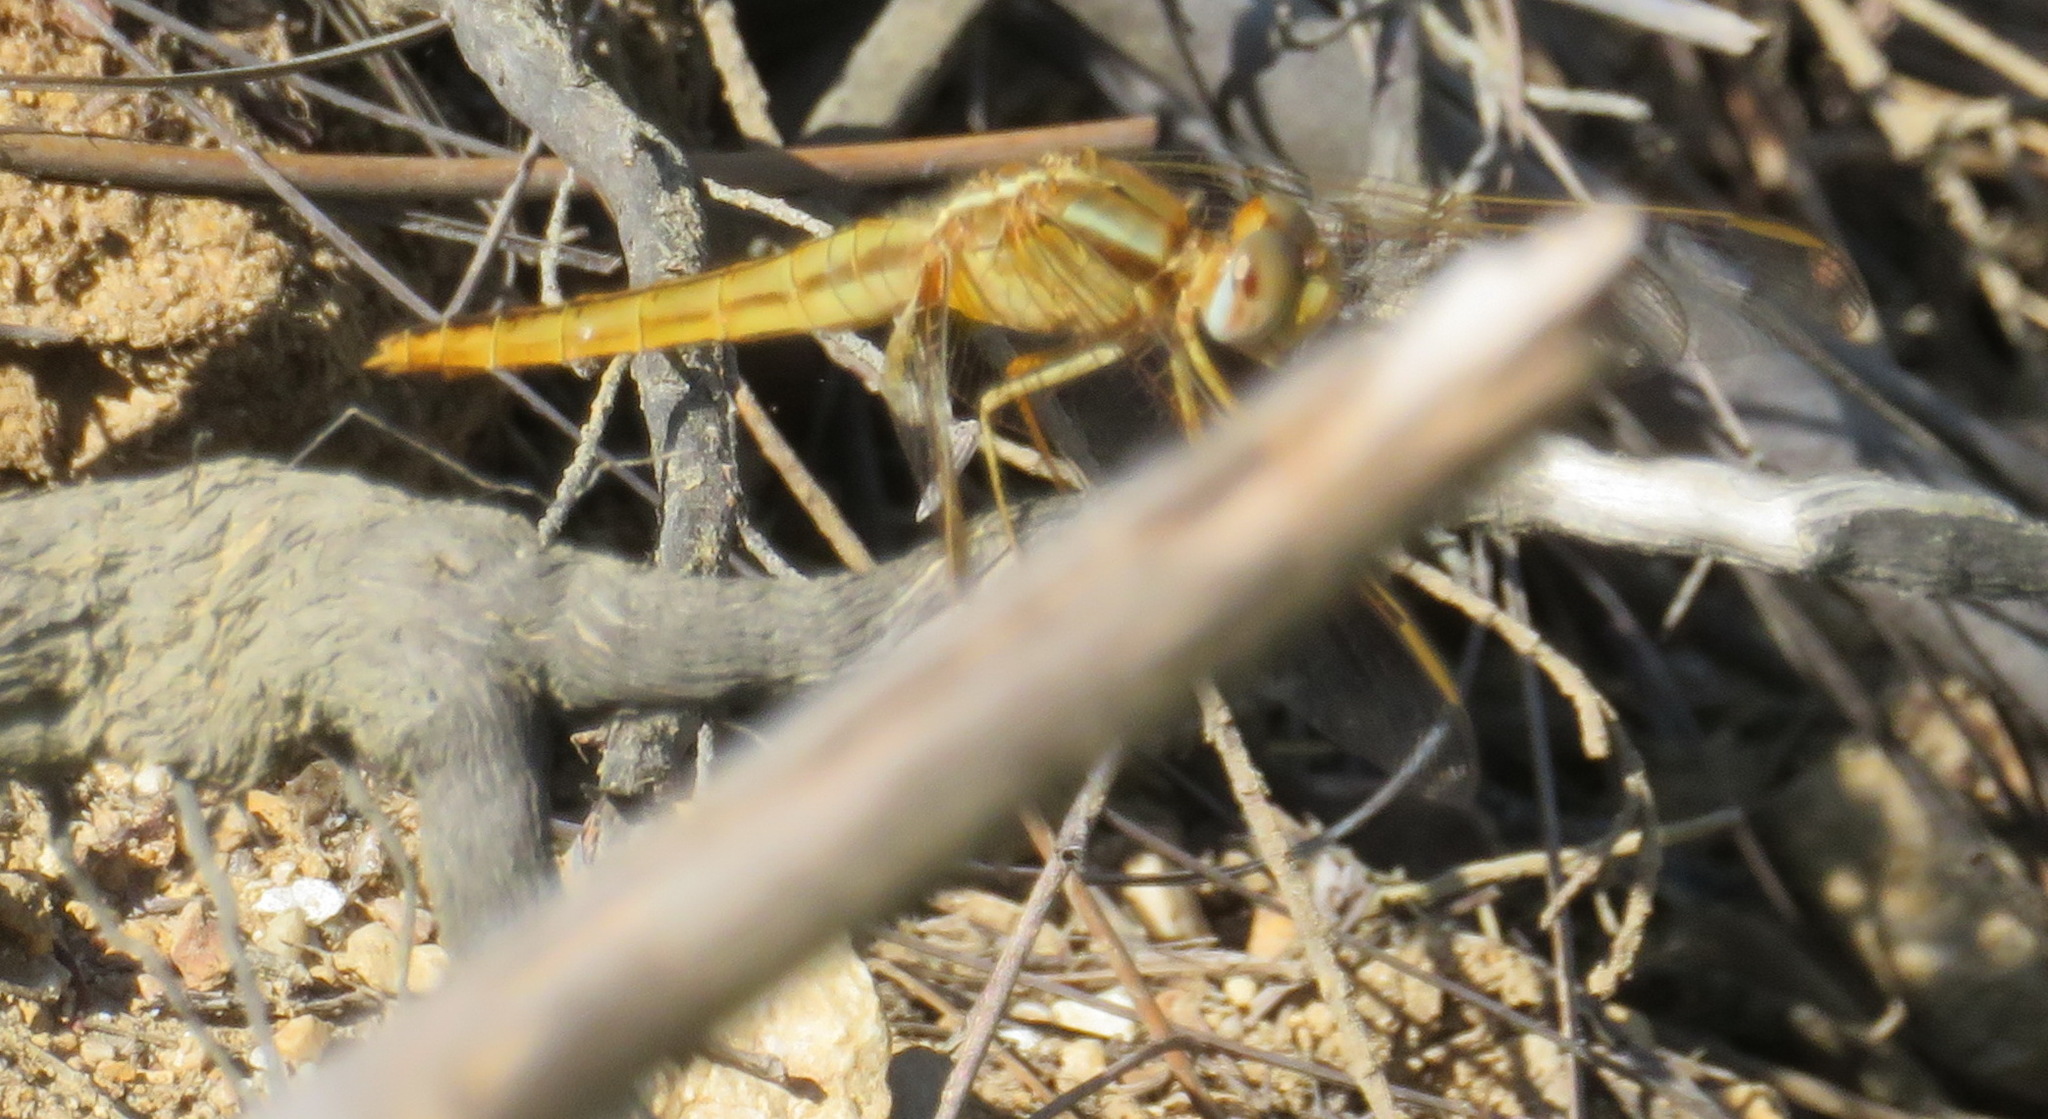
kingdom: Animalia
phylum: Arthropoda
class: Insecta
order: Odonata
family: Libellulidae
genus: Crocothemis
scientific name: Crocothemis erythraea
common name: Scarlet dragonfly
